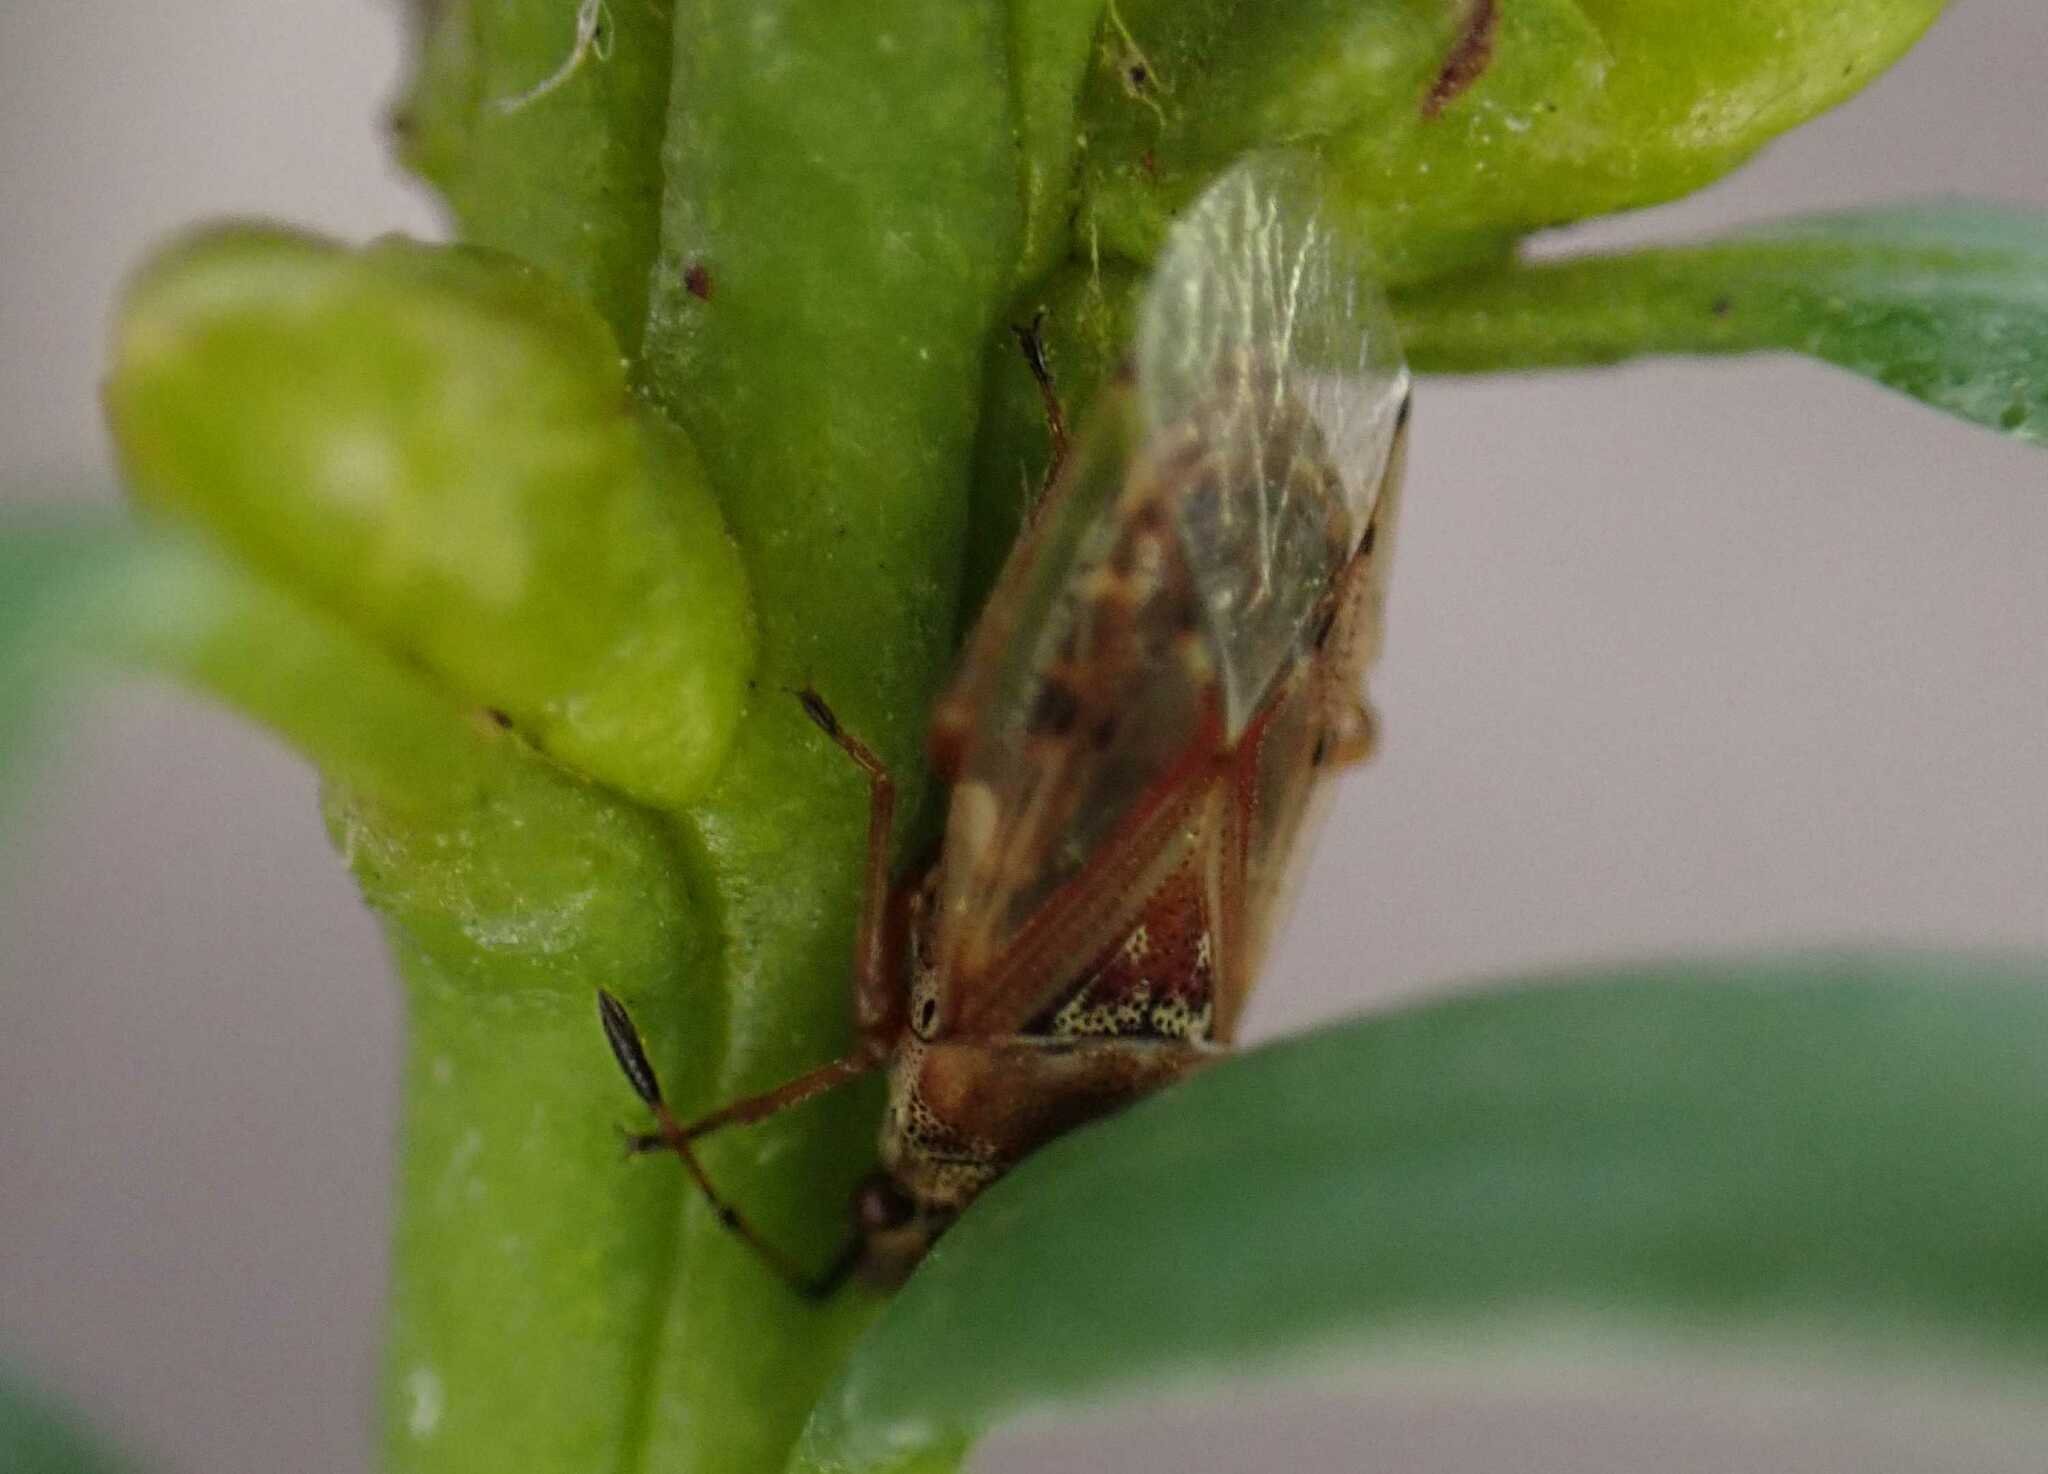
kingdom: Animalia
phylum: Arthropoda
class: Insecta
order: Hemiptera
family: Lygaeidae
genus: Kleidocerys
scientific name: Kleidocerys resedae
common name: Birch catkin bug
